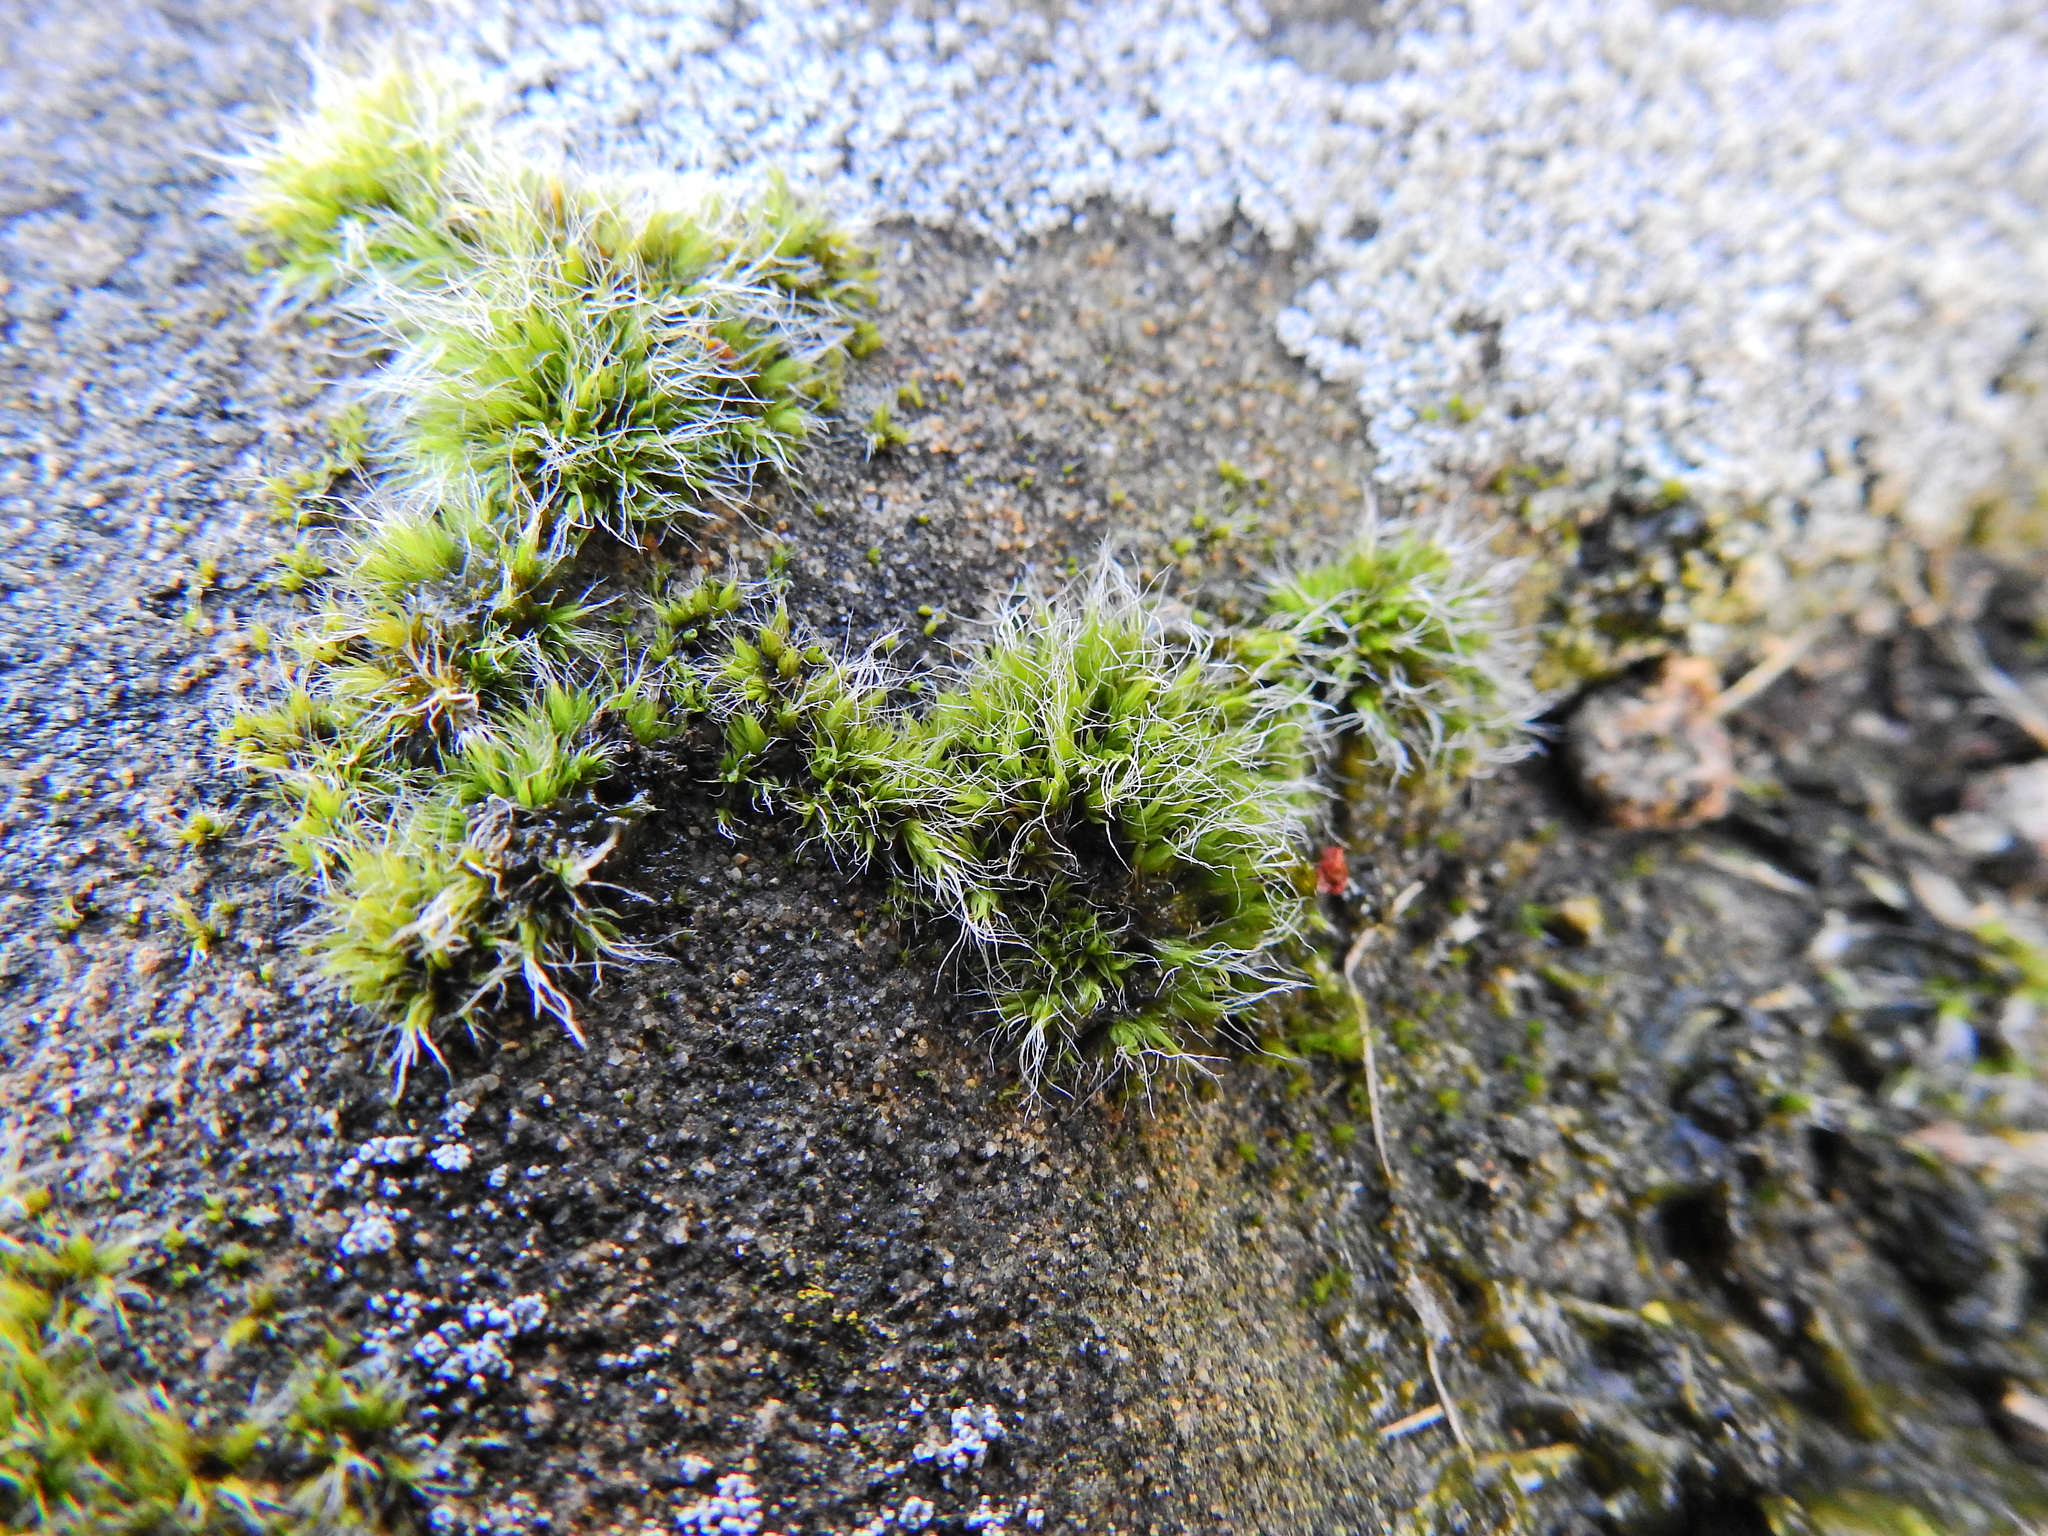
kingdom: Plantae
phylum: Bryophyta
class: Bryopsida
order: Grimmiales
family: Grimmiaceae
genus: Grimmia
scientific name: Grimmia pulvinata
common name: Grey-cushioned grimmia
